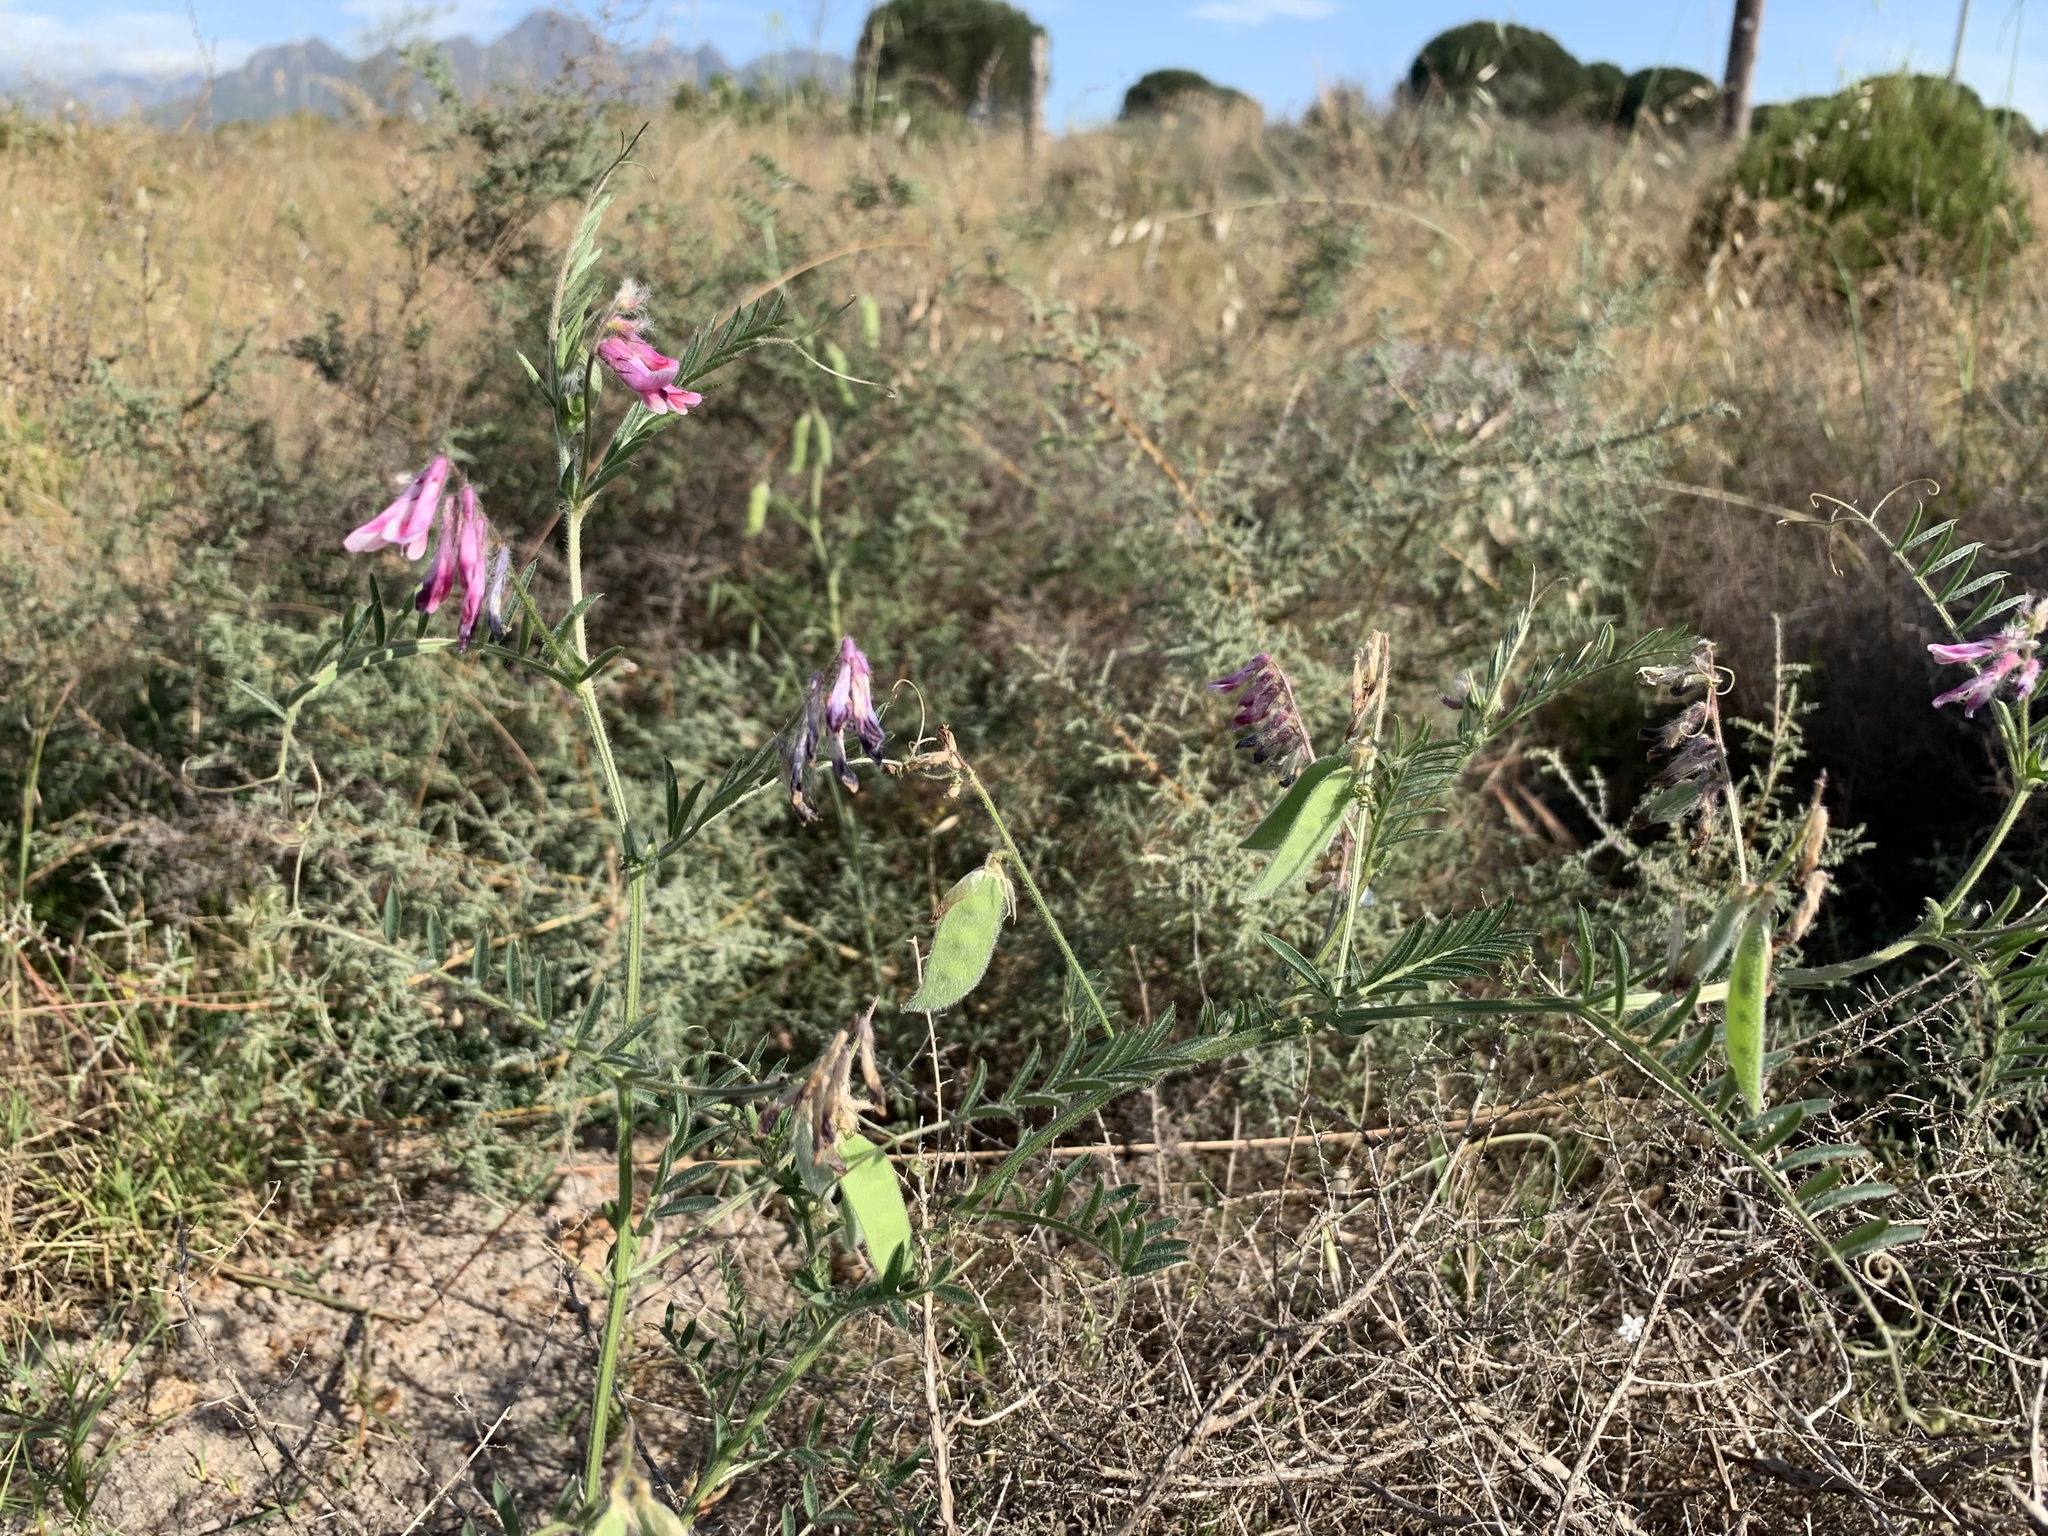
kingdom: Plantae
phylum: Tracheophyta
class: Magnoliopsida
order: Fabales
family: Fabaceae
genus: Vicia
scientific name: Vicia benghalensis
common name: Purple vetch
